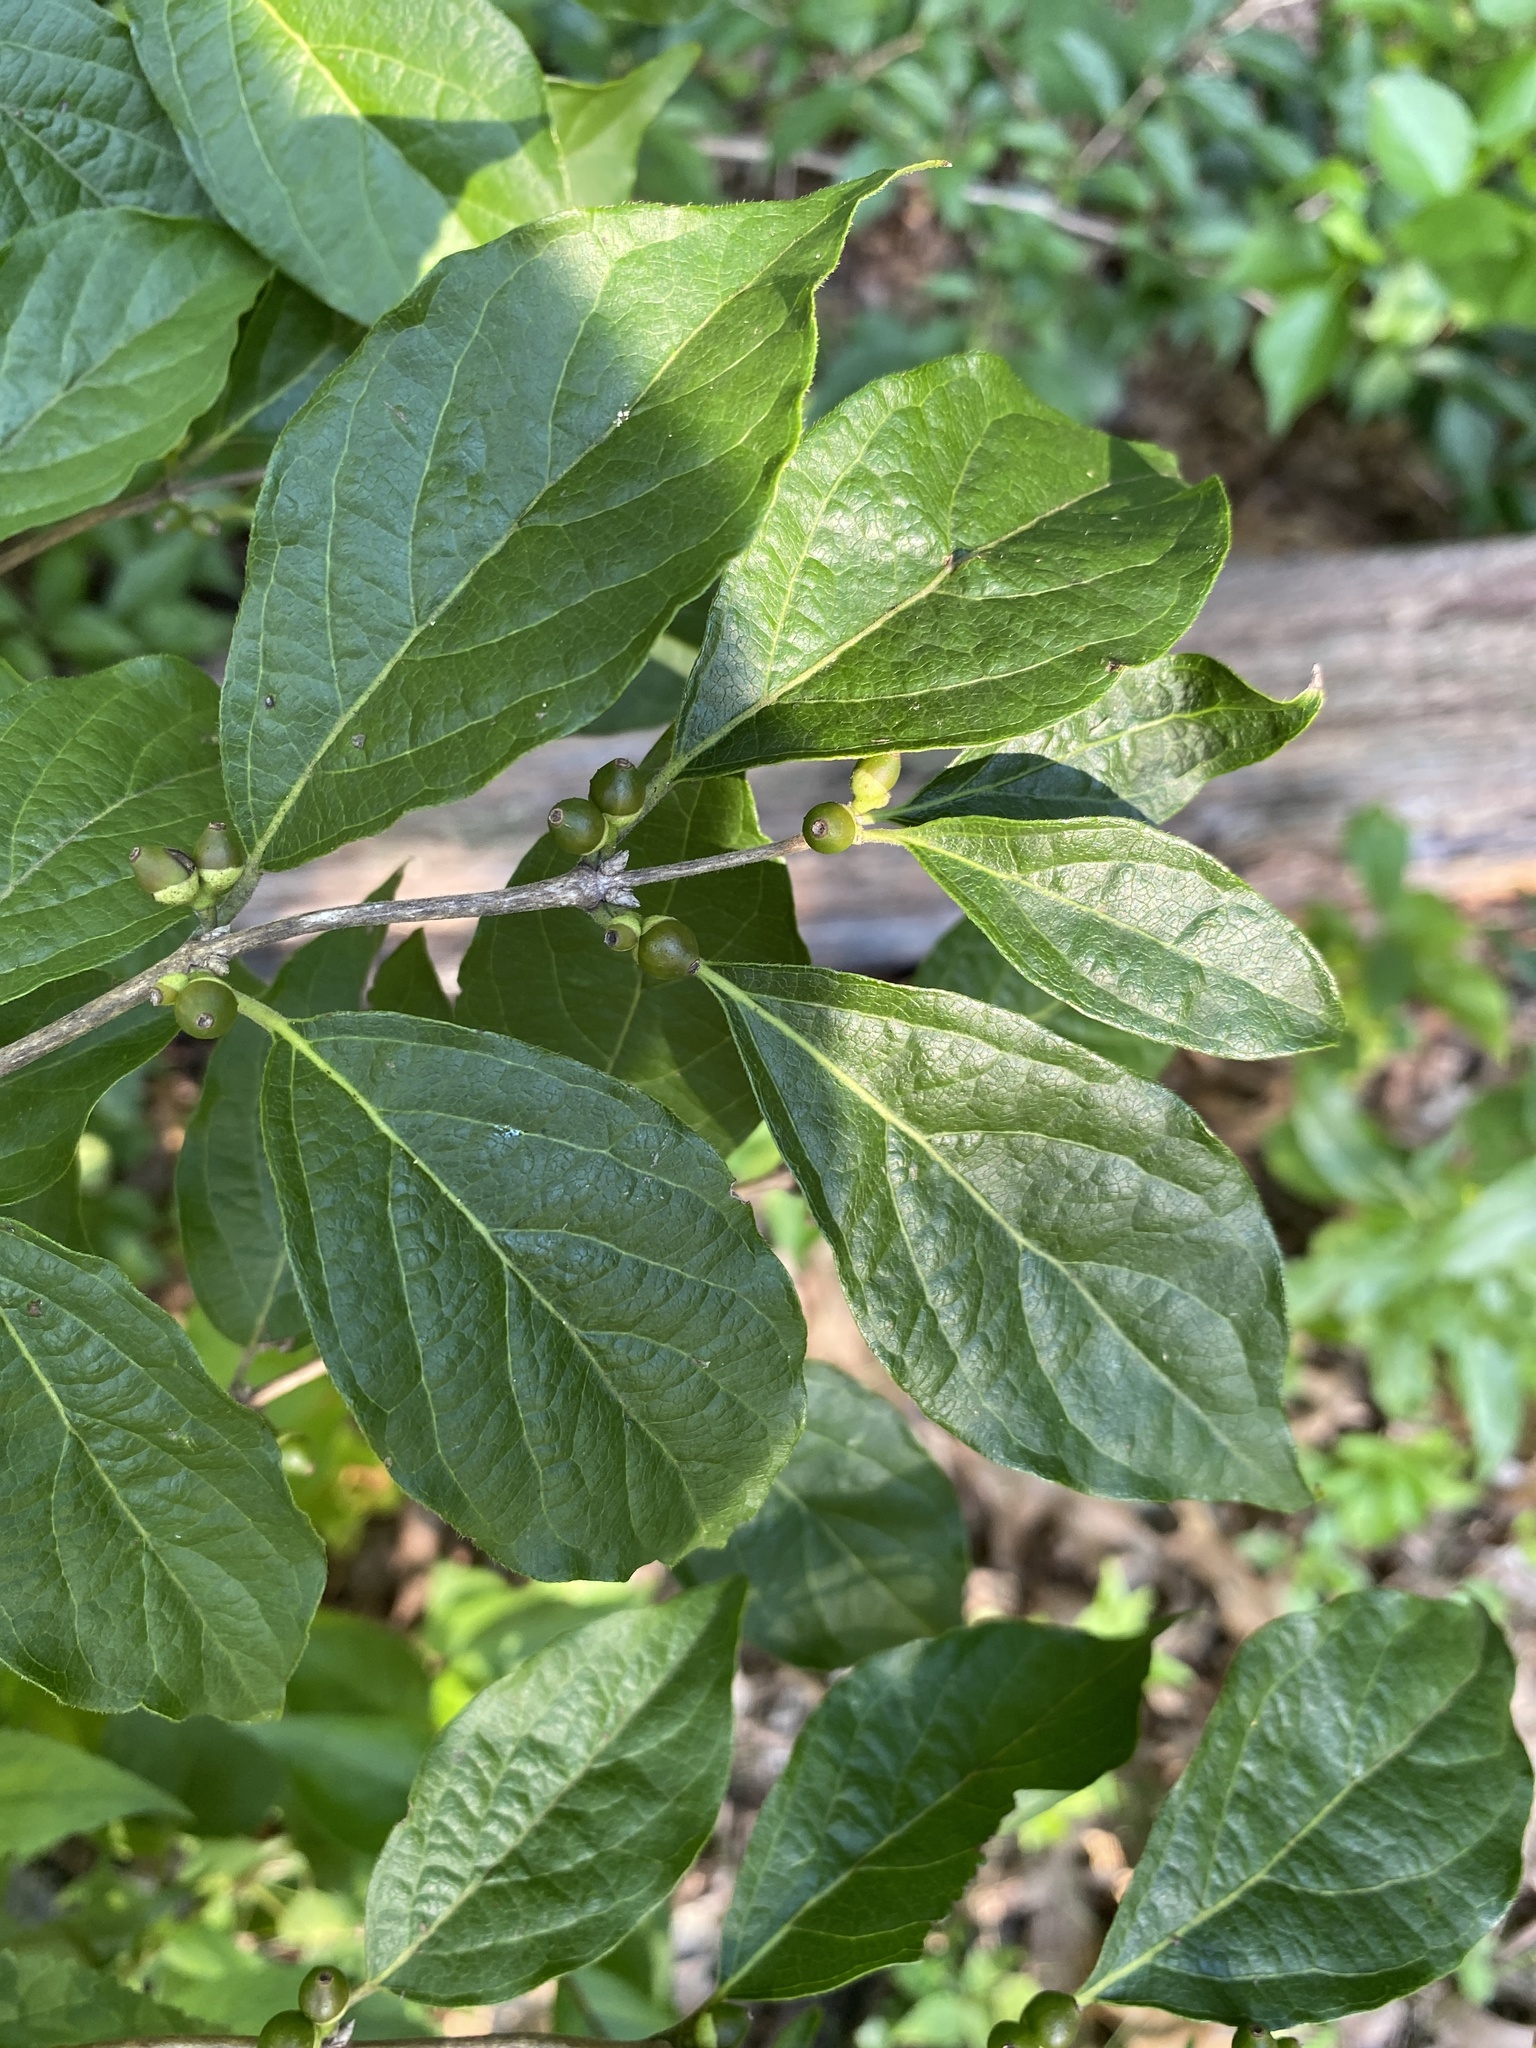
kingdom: Plantae
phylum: Tracheophyta
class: Magnoliopsida
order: Dipsacales
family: Caprifoliaceae
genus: Lonicera
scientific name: Lonicera maackii
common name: Amur honeysuckle
